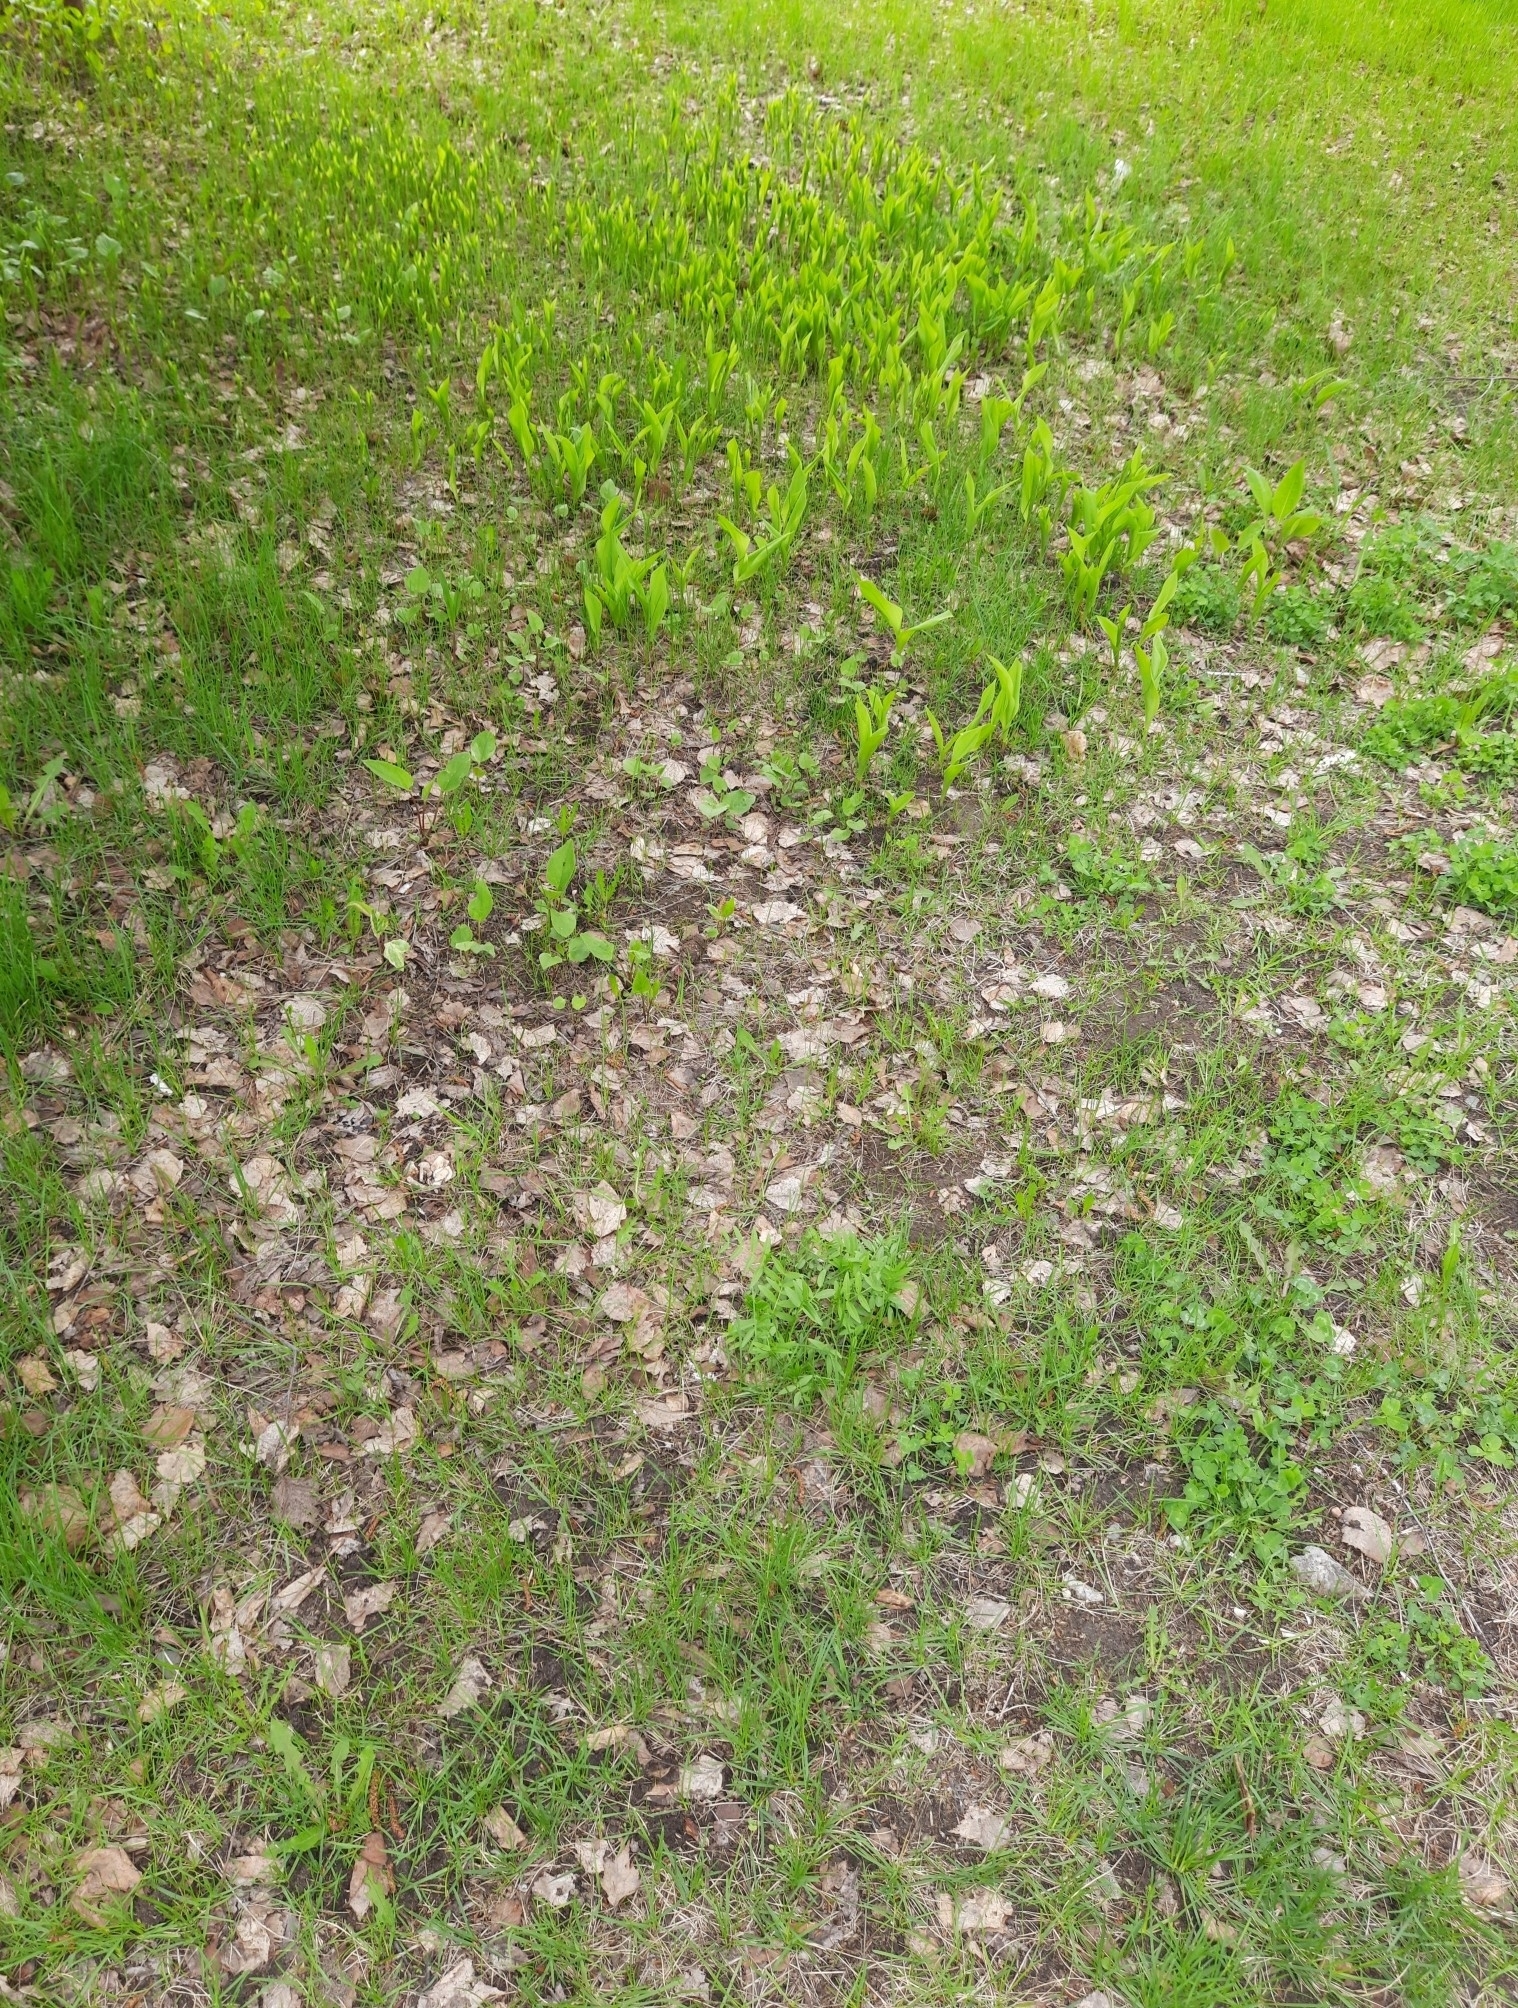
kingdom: Plantae
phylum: Tracheophyta
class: Liliopsida
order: Asparagales
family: Asparagaceae
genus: Convallaria
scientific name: Convallaria majalis
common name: Lily-of-the-valley
